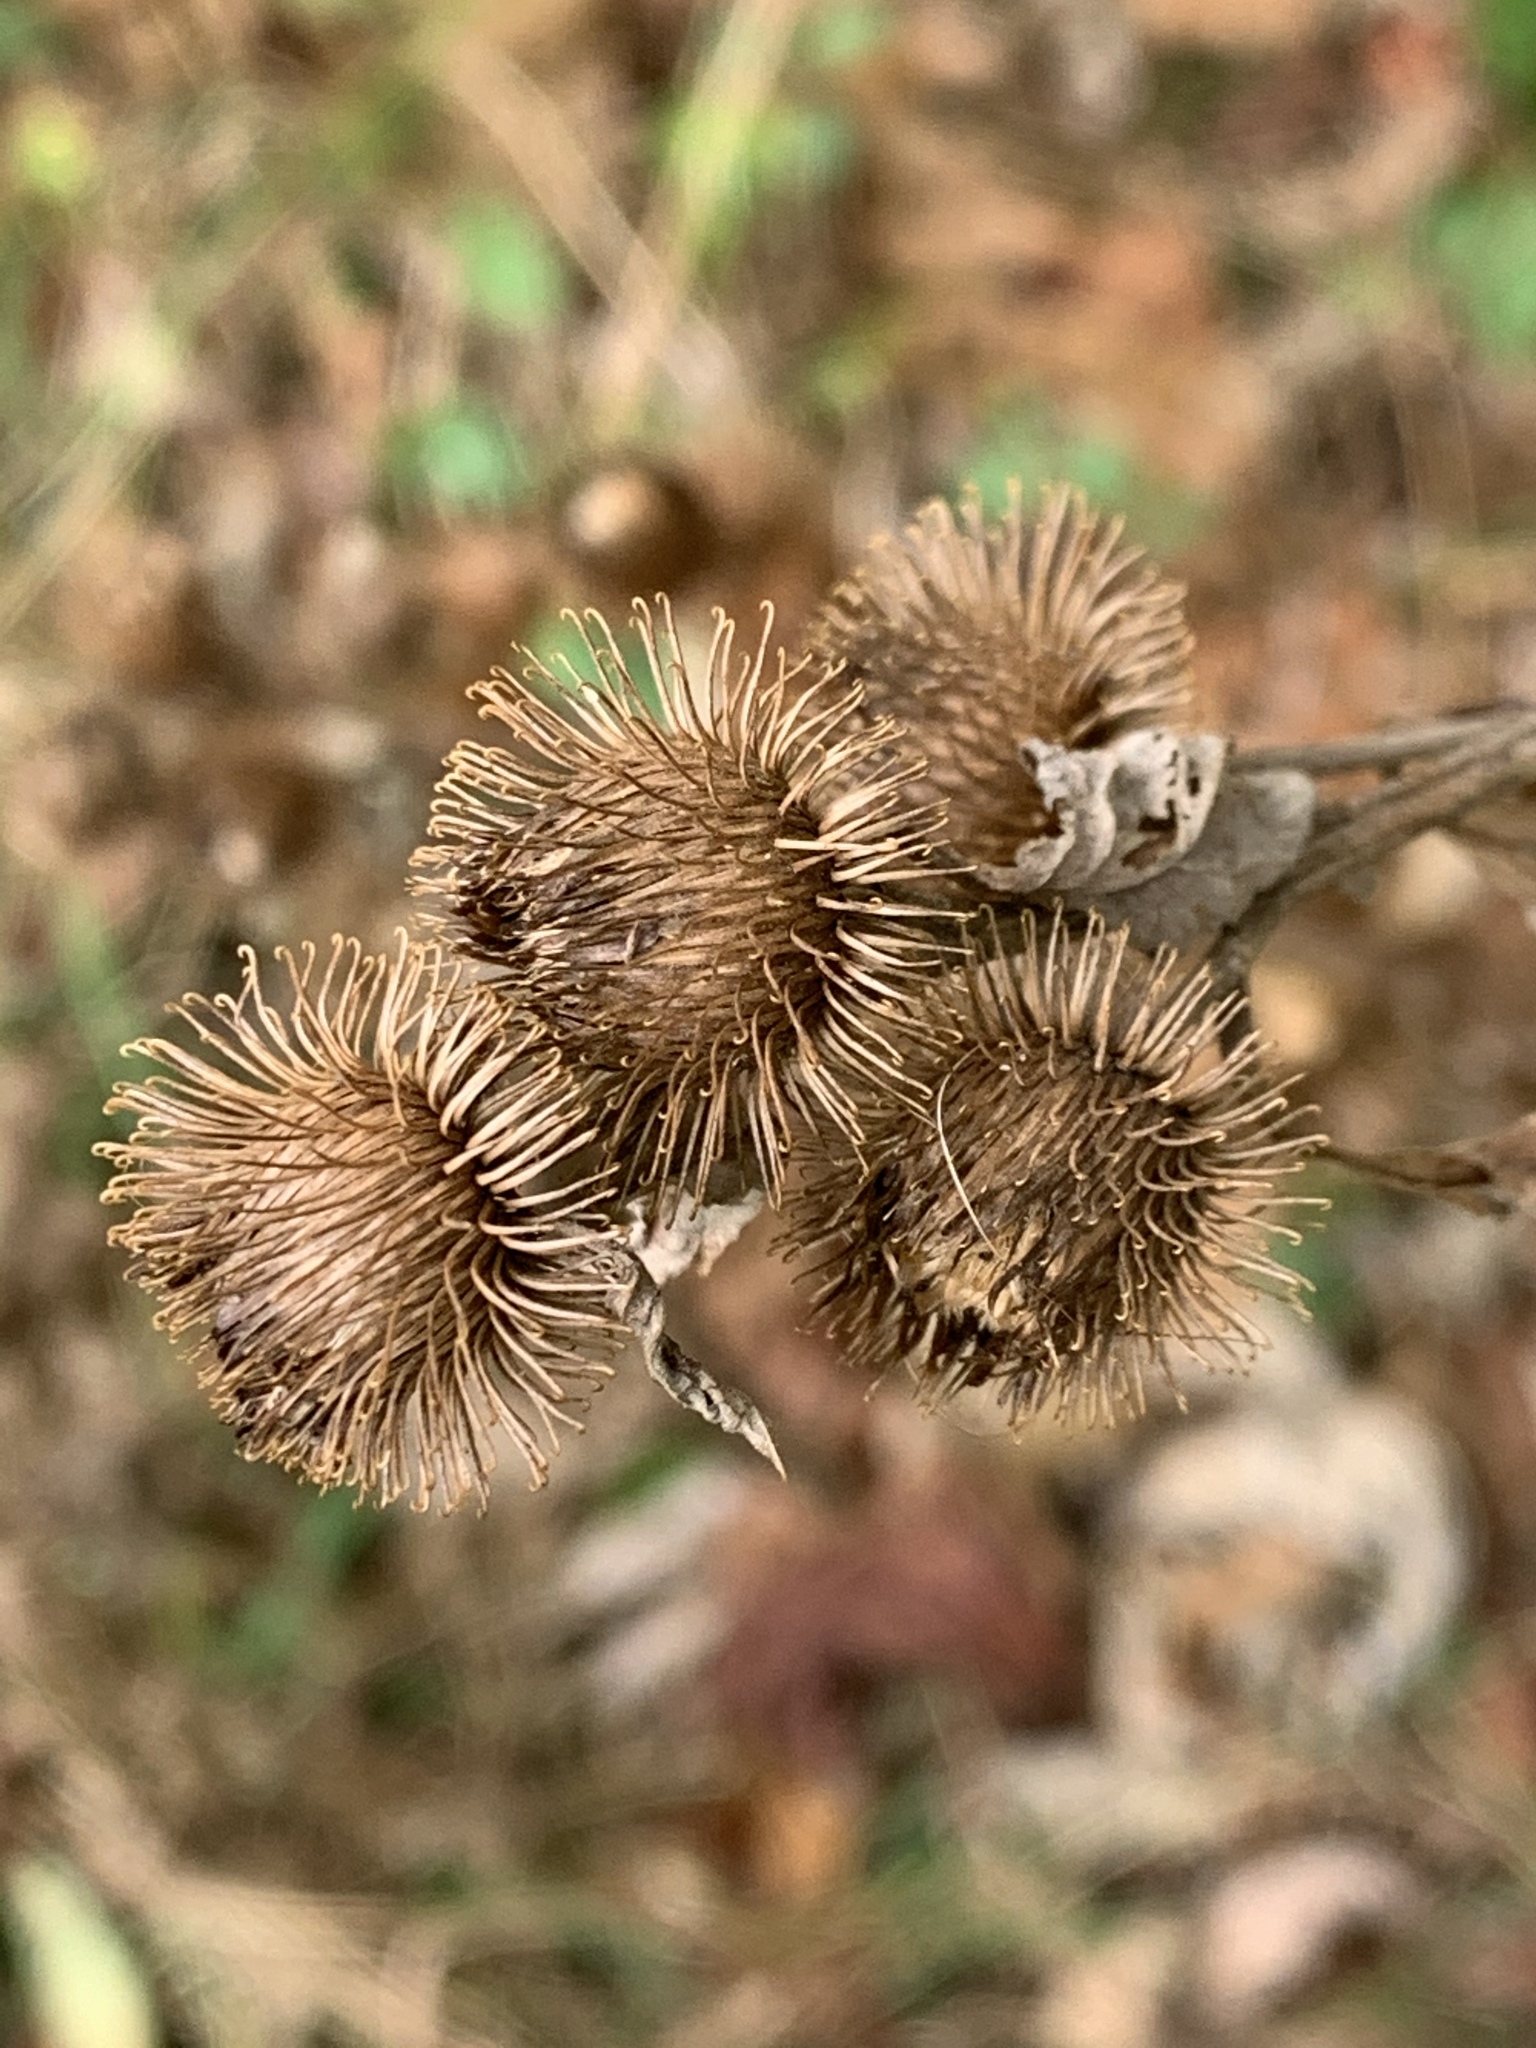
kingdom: Plantae
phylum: Tracheophyta
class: Magnoliopsida
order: Asterales
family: Asteraceae
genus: Arctium
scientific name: Arctium minus
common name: Lesser burdock
